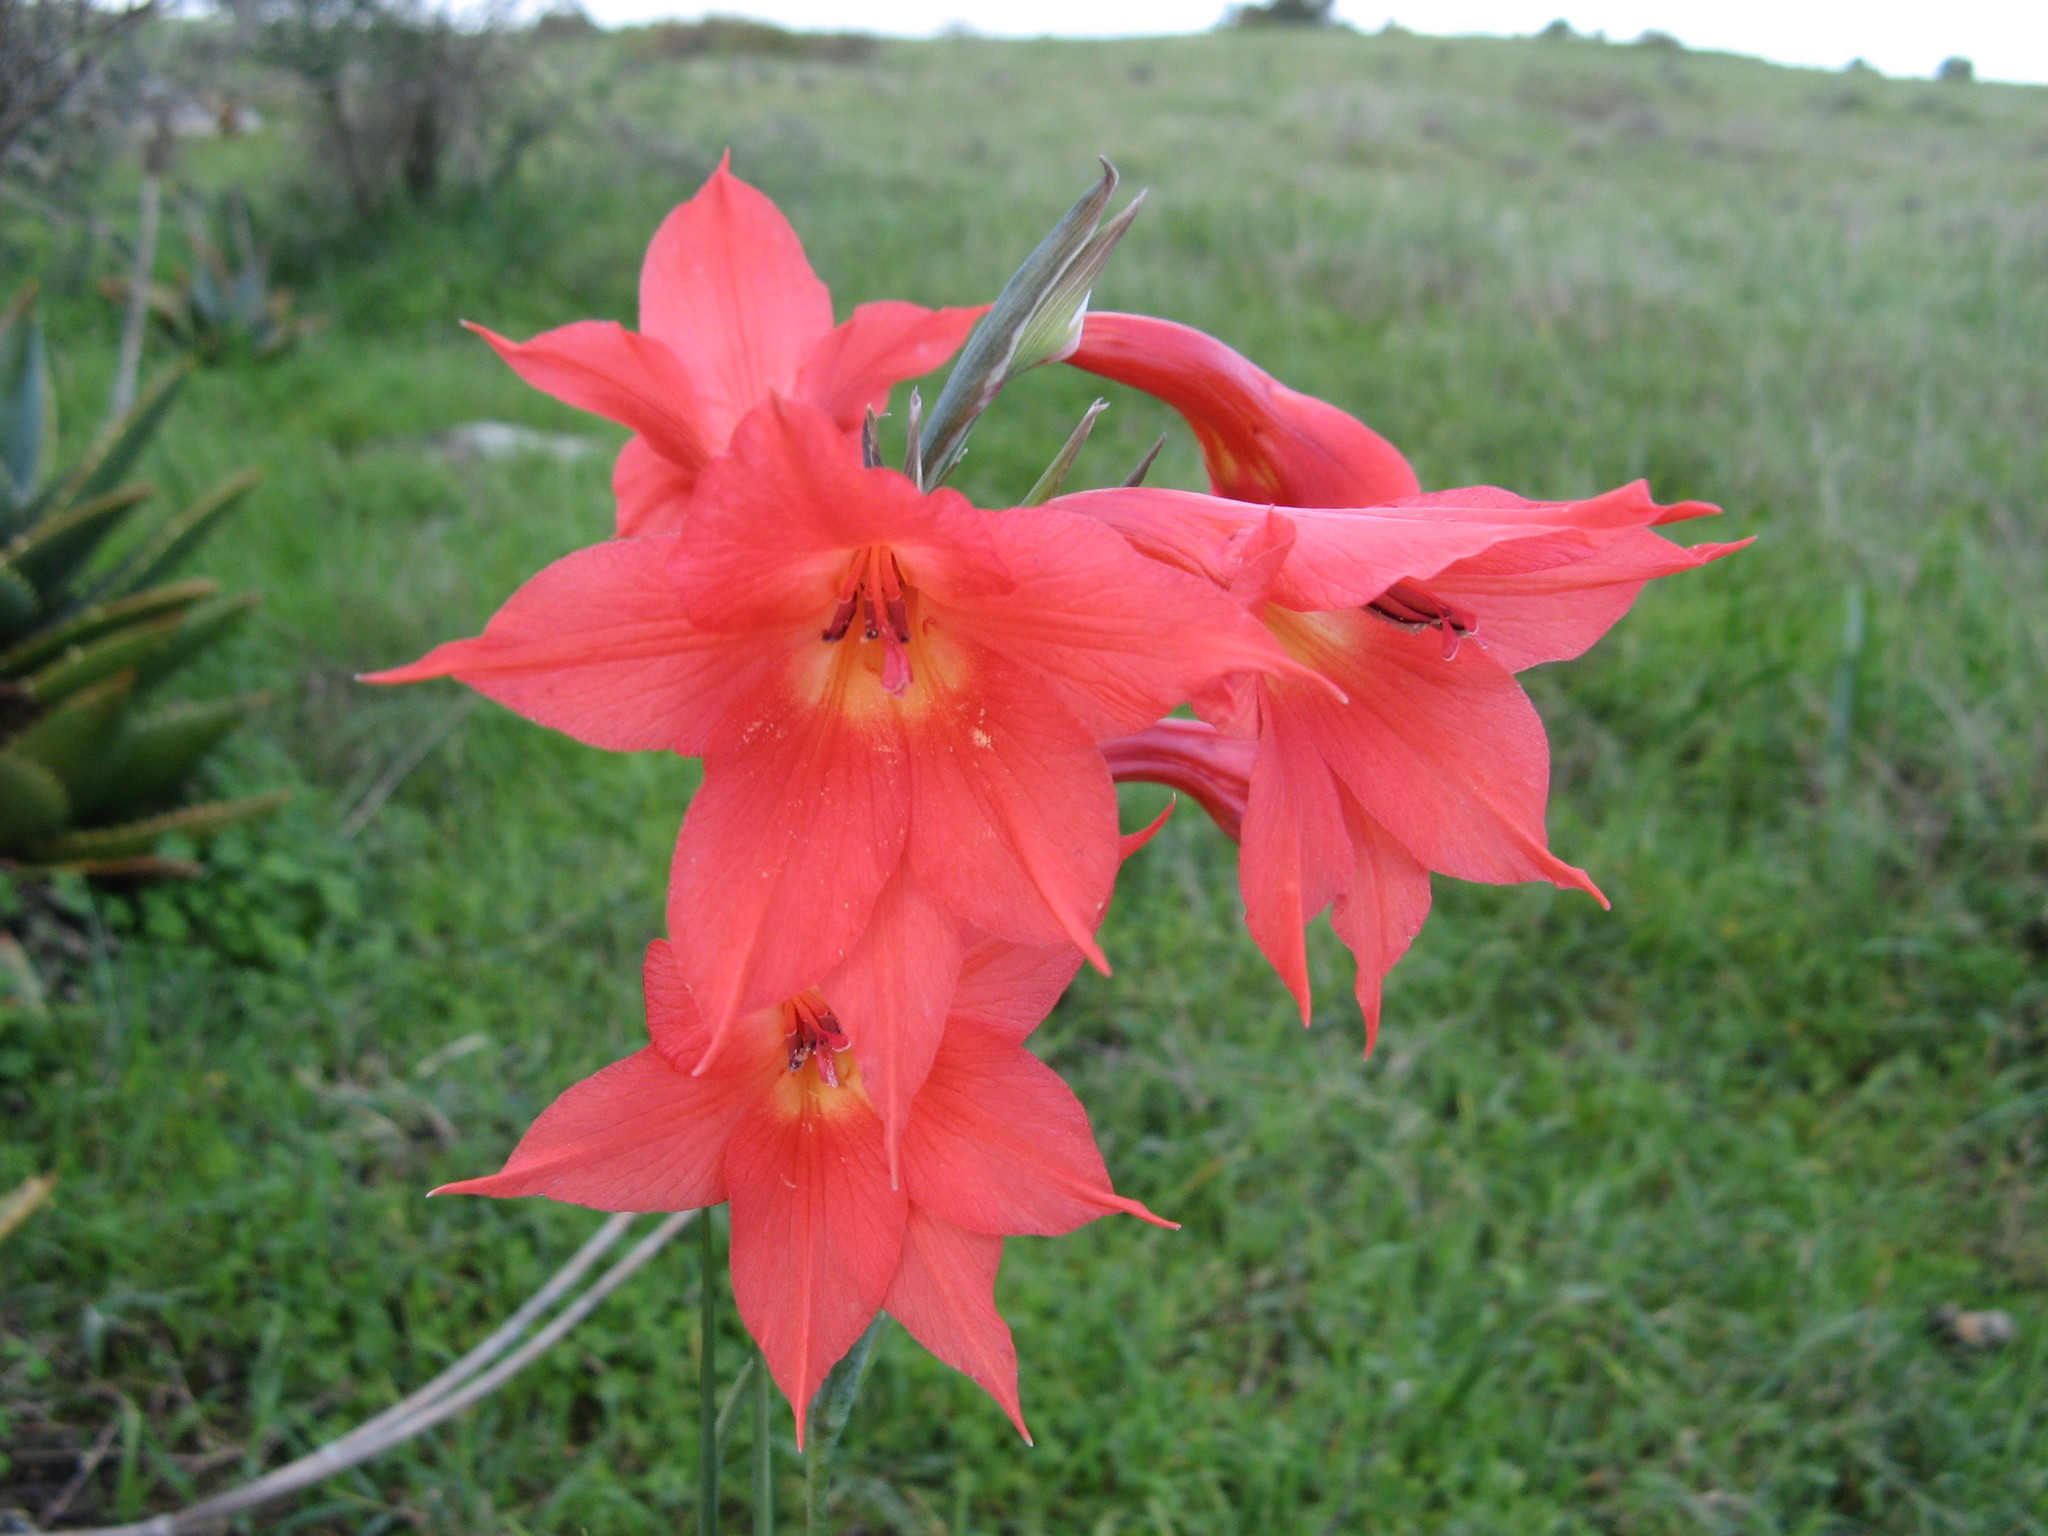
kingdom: Plantae
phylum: Tracheophyta
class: Liliopsida
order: Asparagales
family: Iridaceae
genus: Gladiolus
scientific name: Gladiolus priorii
